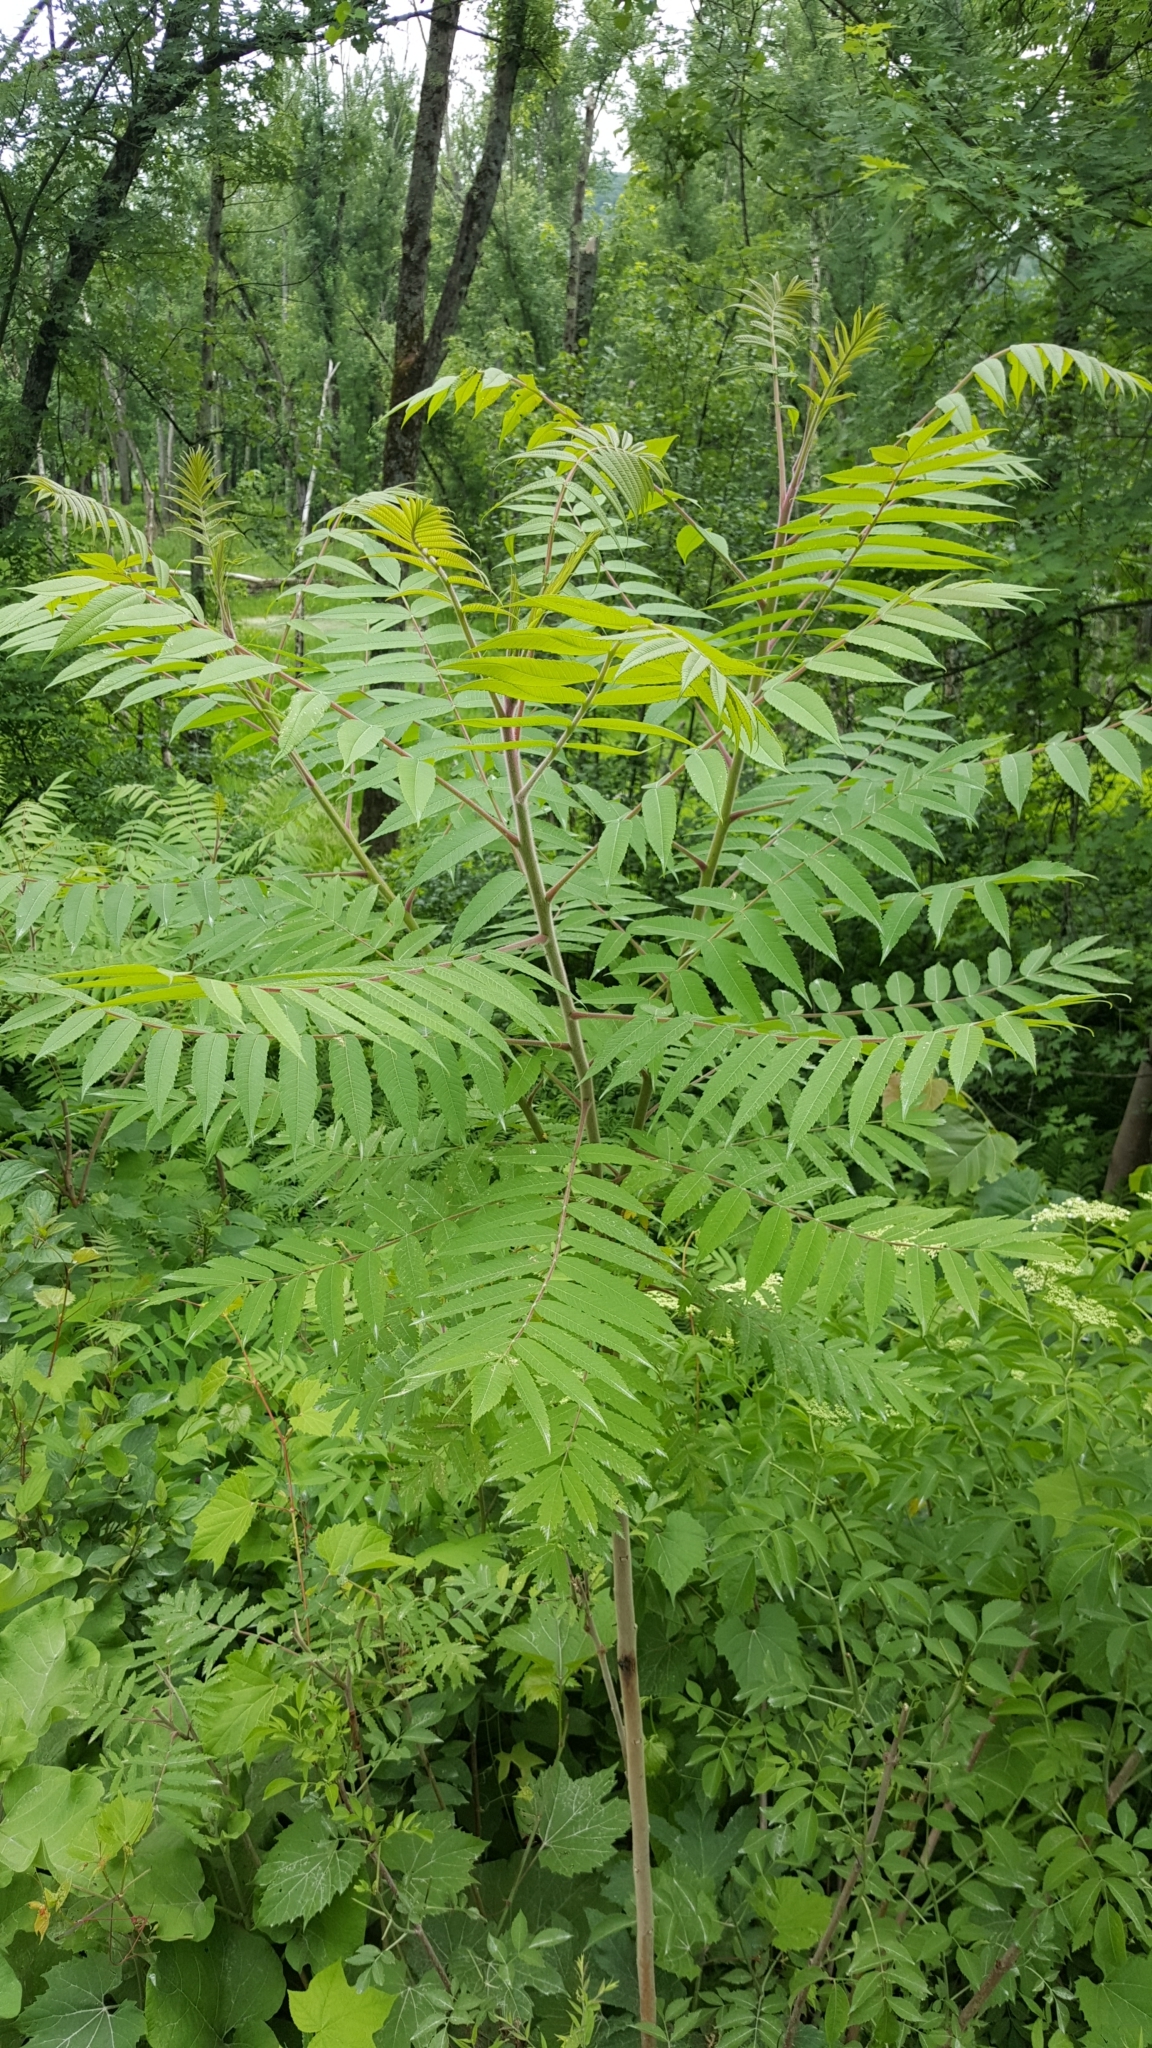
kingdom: Plantae
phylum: Tracheophyta
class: Magnoliopsida
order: Sapindales
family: Anacardiaceae
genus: Rhus
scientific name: Rhus typhina
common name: Staghorn sumac
